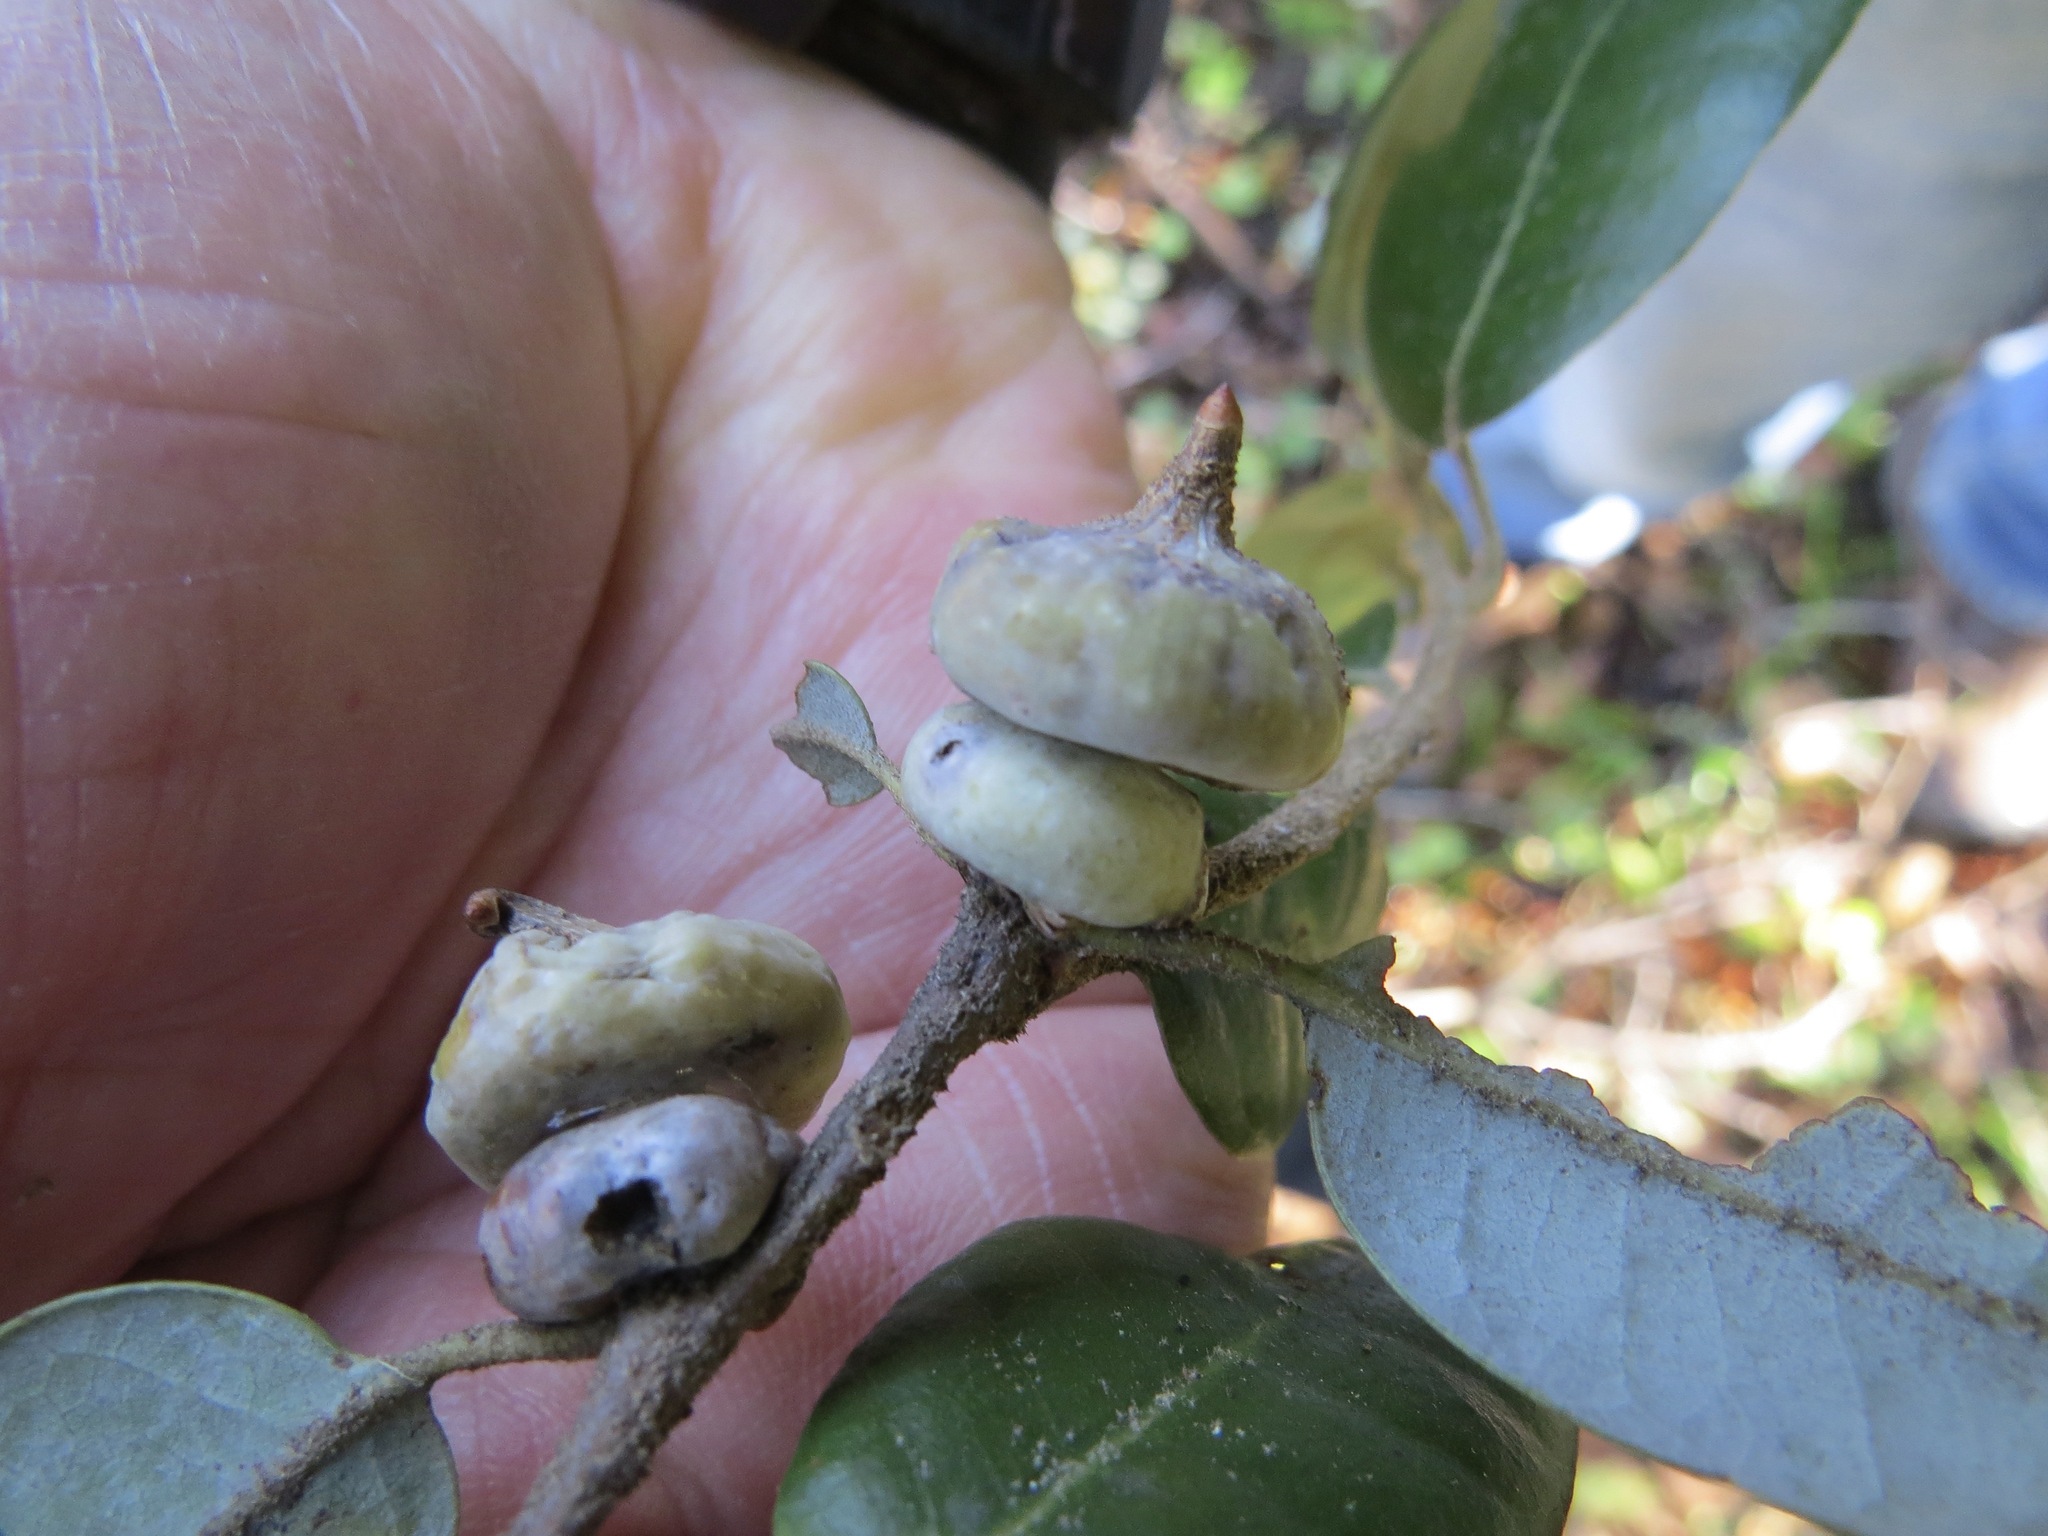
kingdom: Animalia
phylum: Arthropoda
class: Insecta
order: Hymenoptera
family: Cynipidae
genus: Heteroecus
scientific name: Heteroecus
